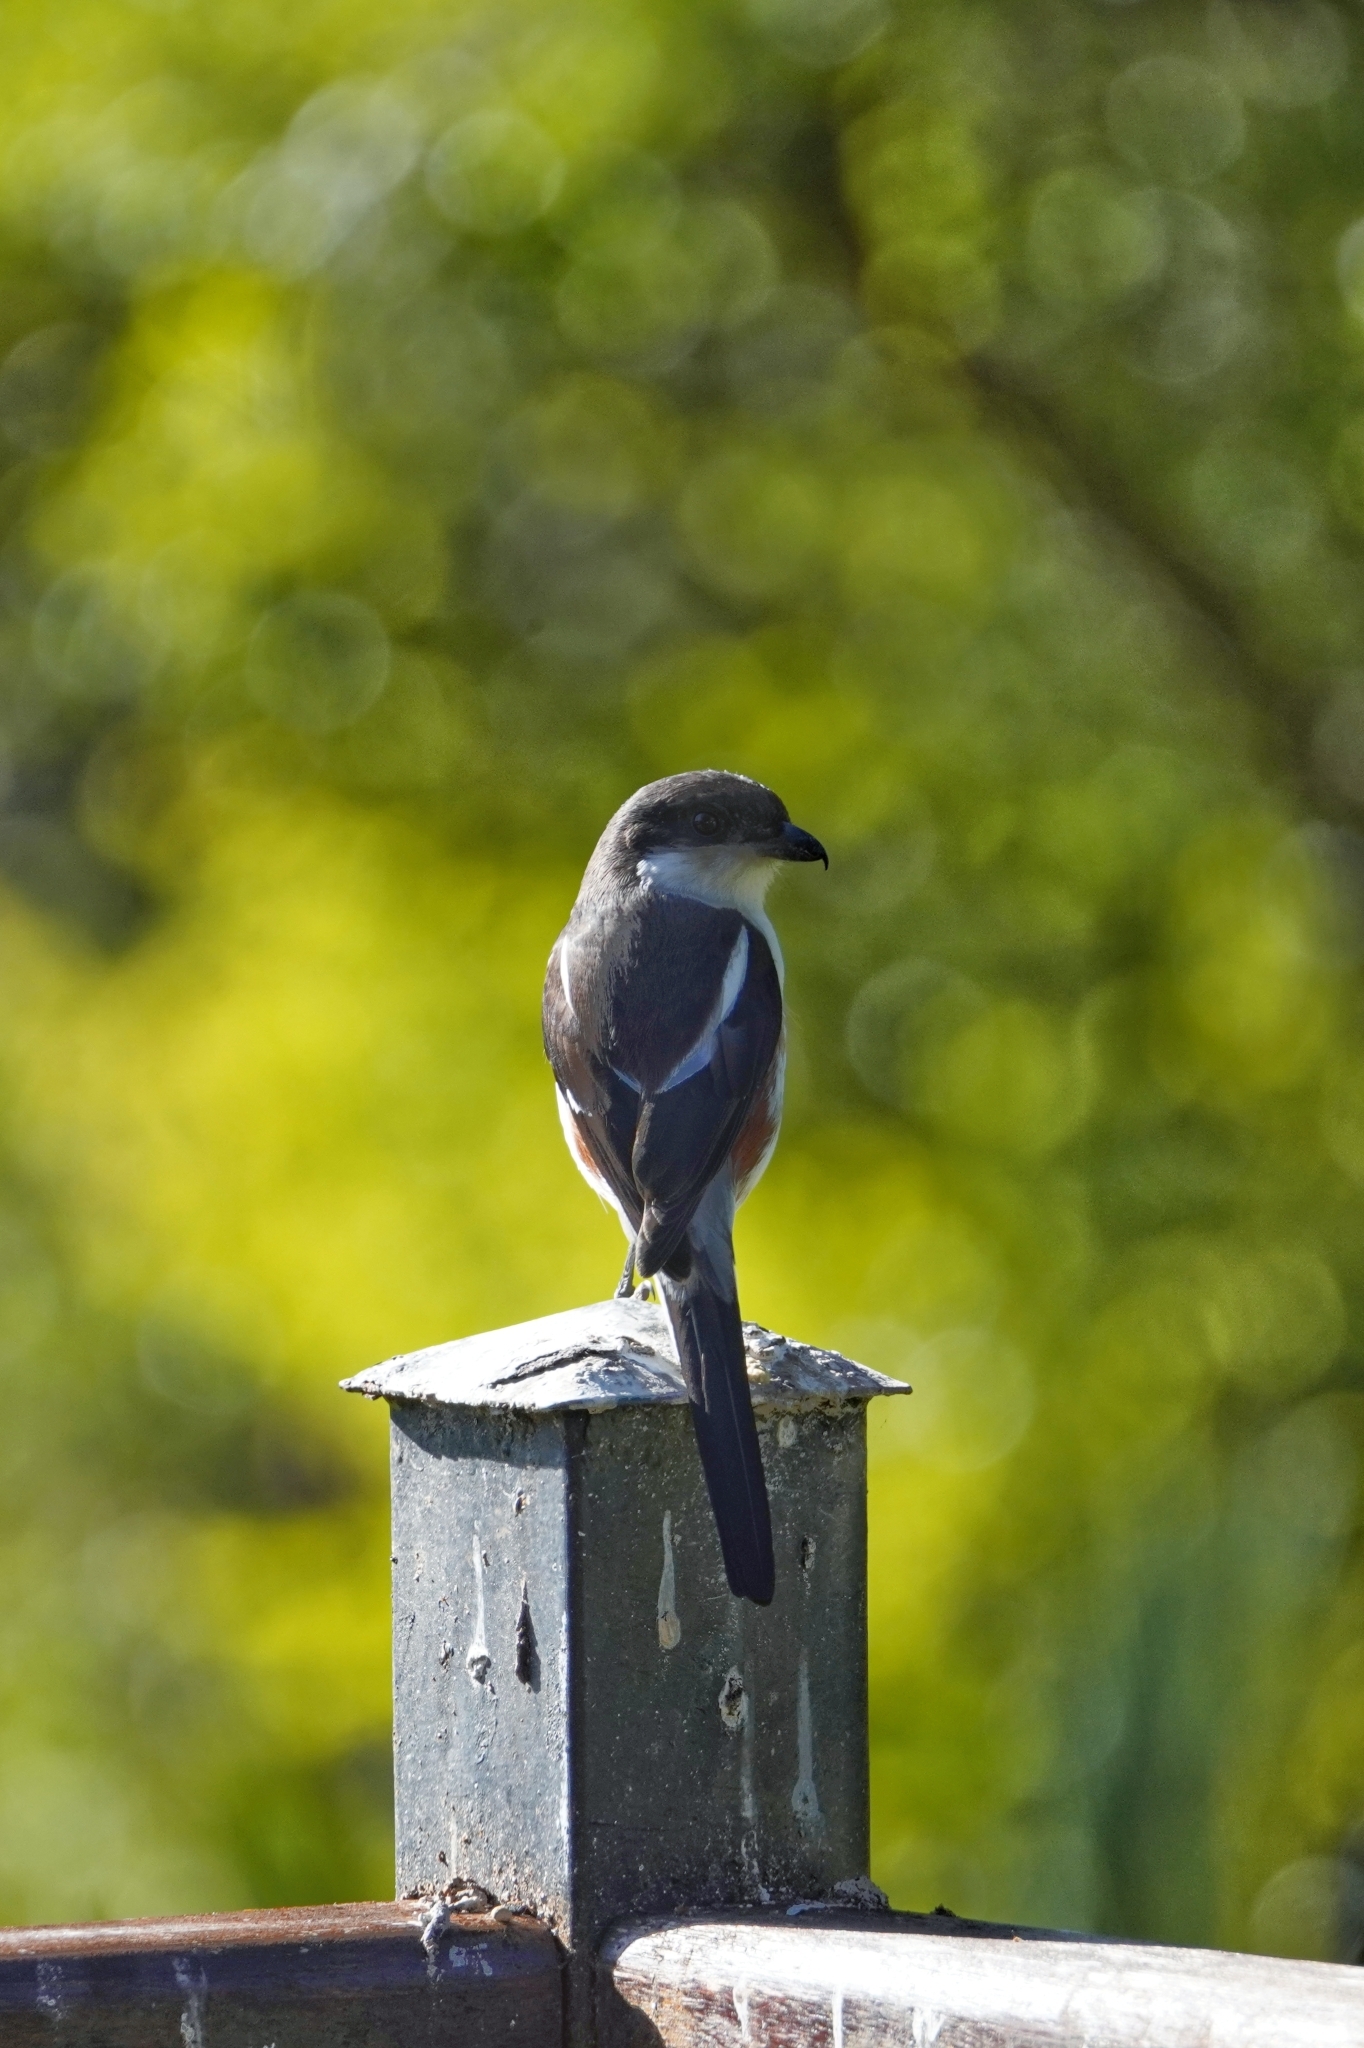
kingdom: Animalia
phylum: Chordata
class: Aves
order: Passeriformes
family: Laniidae
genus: Lanius
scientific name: Lanius collaris
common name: Southern fiscal
